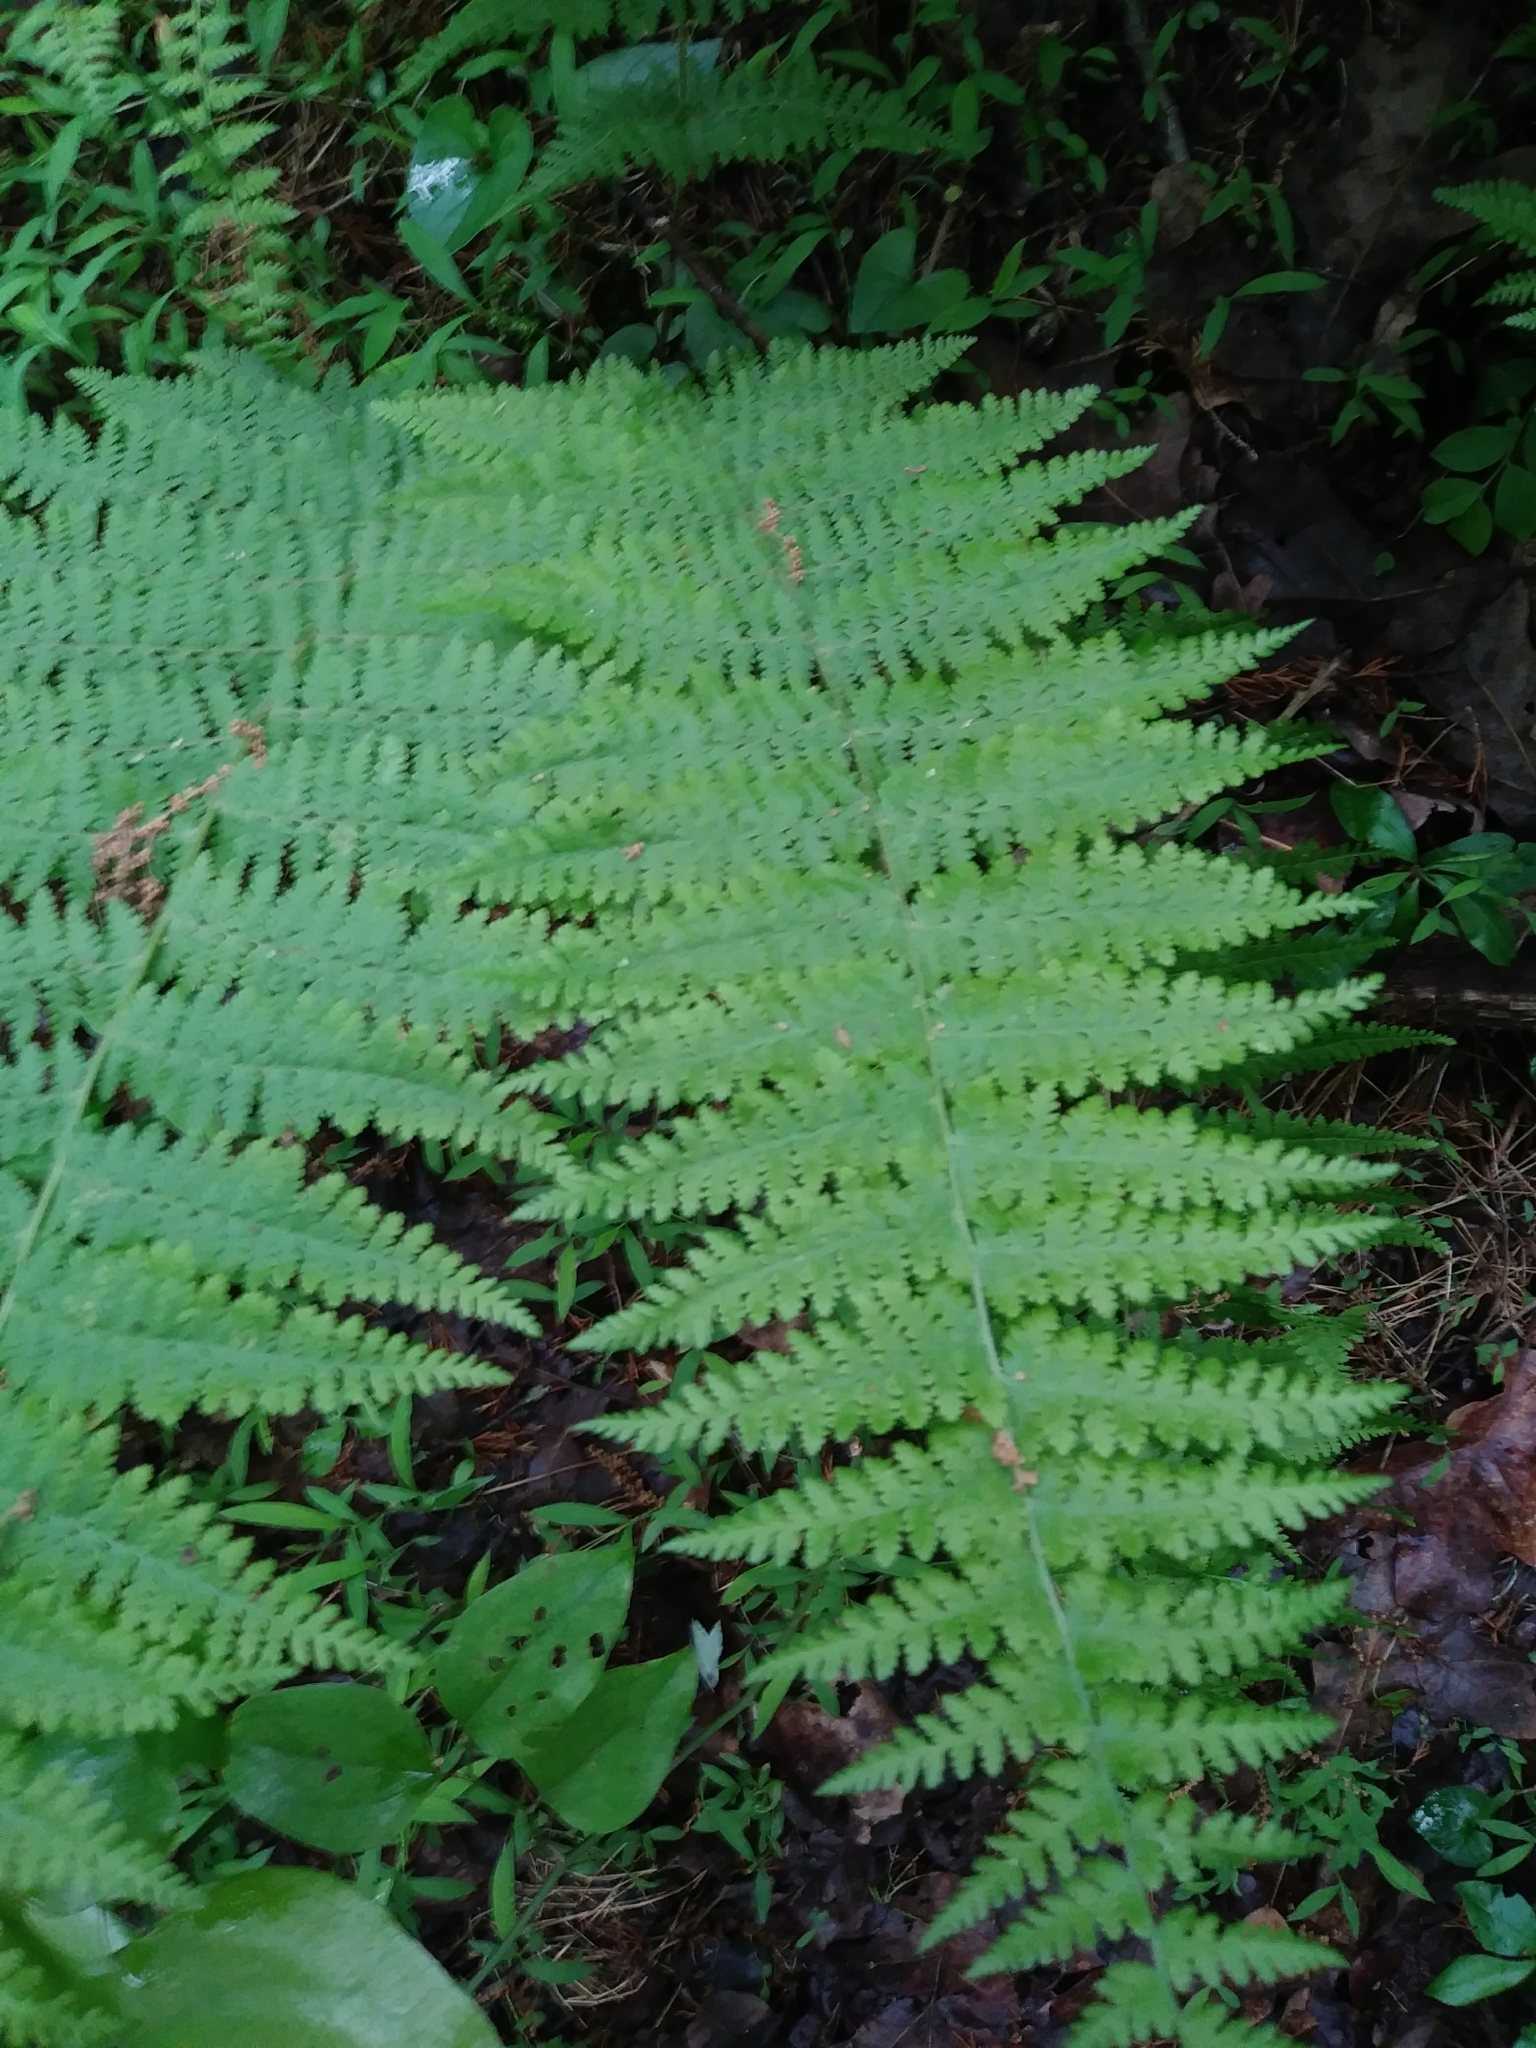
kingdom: Plantae
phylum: Tracheophyta
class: Polypodiopsida
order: Polypodiales
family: Dennstaedtiaceae
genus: Sitobolium
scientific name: Sitobolium punctilobum
